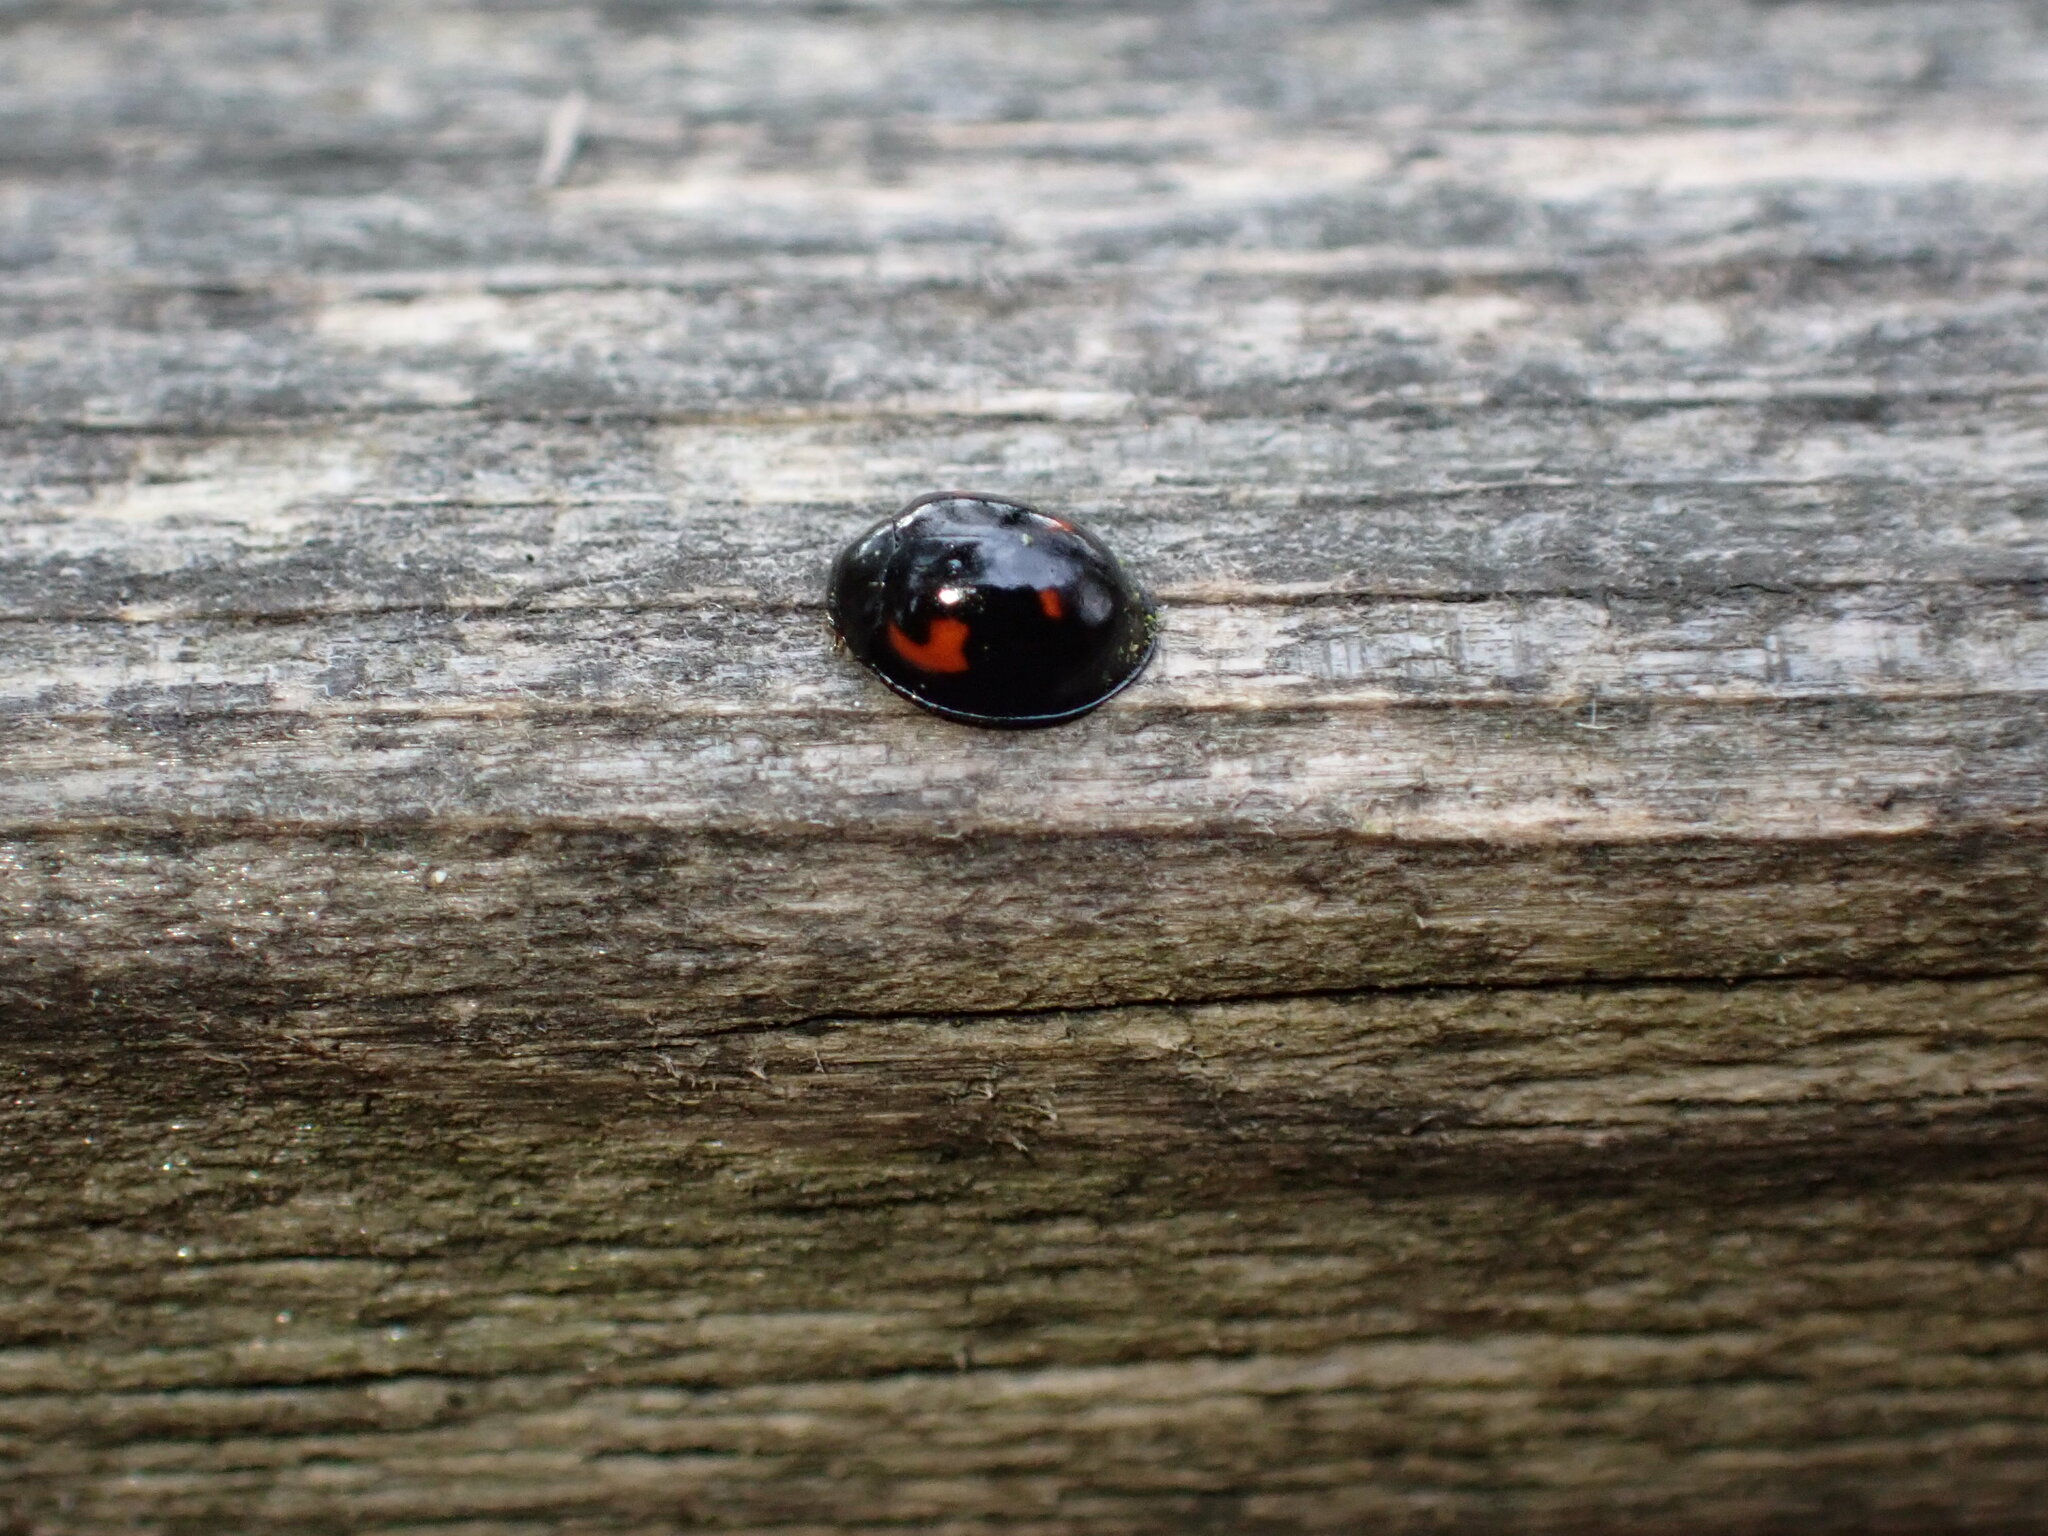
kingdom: Animalia
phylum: Arthropoda
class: Insecta
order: Coleoptera
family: Coccinellidae
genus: Brumus
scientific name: Brumus quadripustulatus
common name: Ladybird beetle
